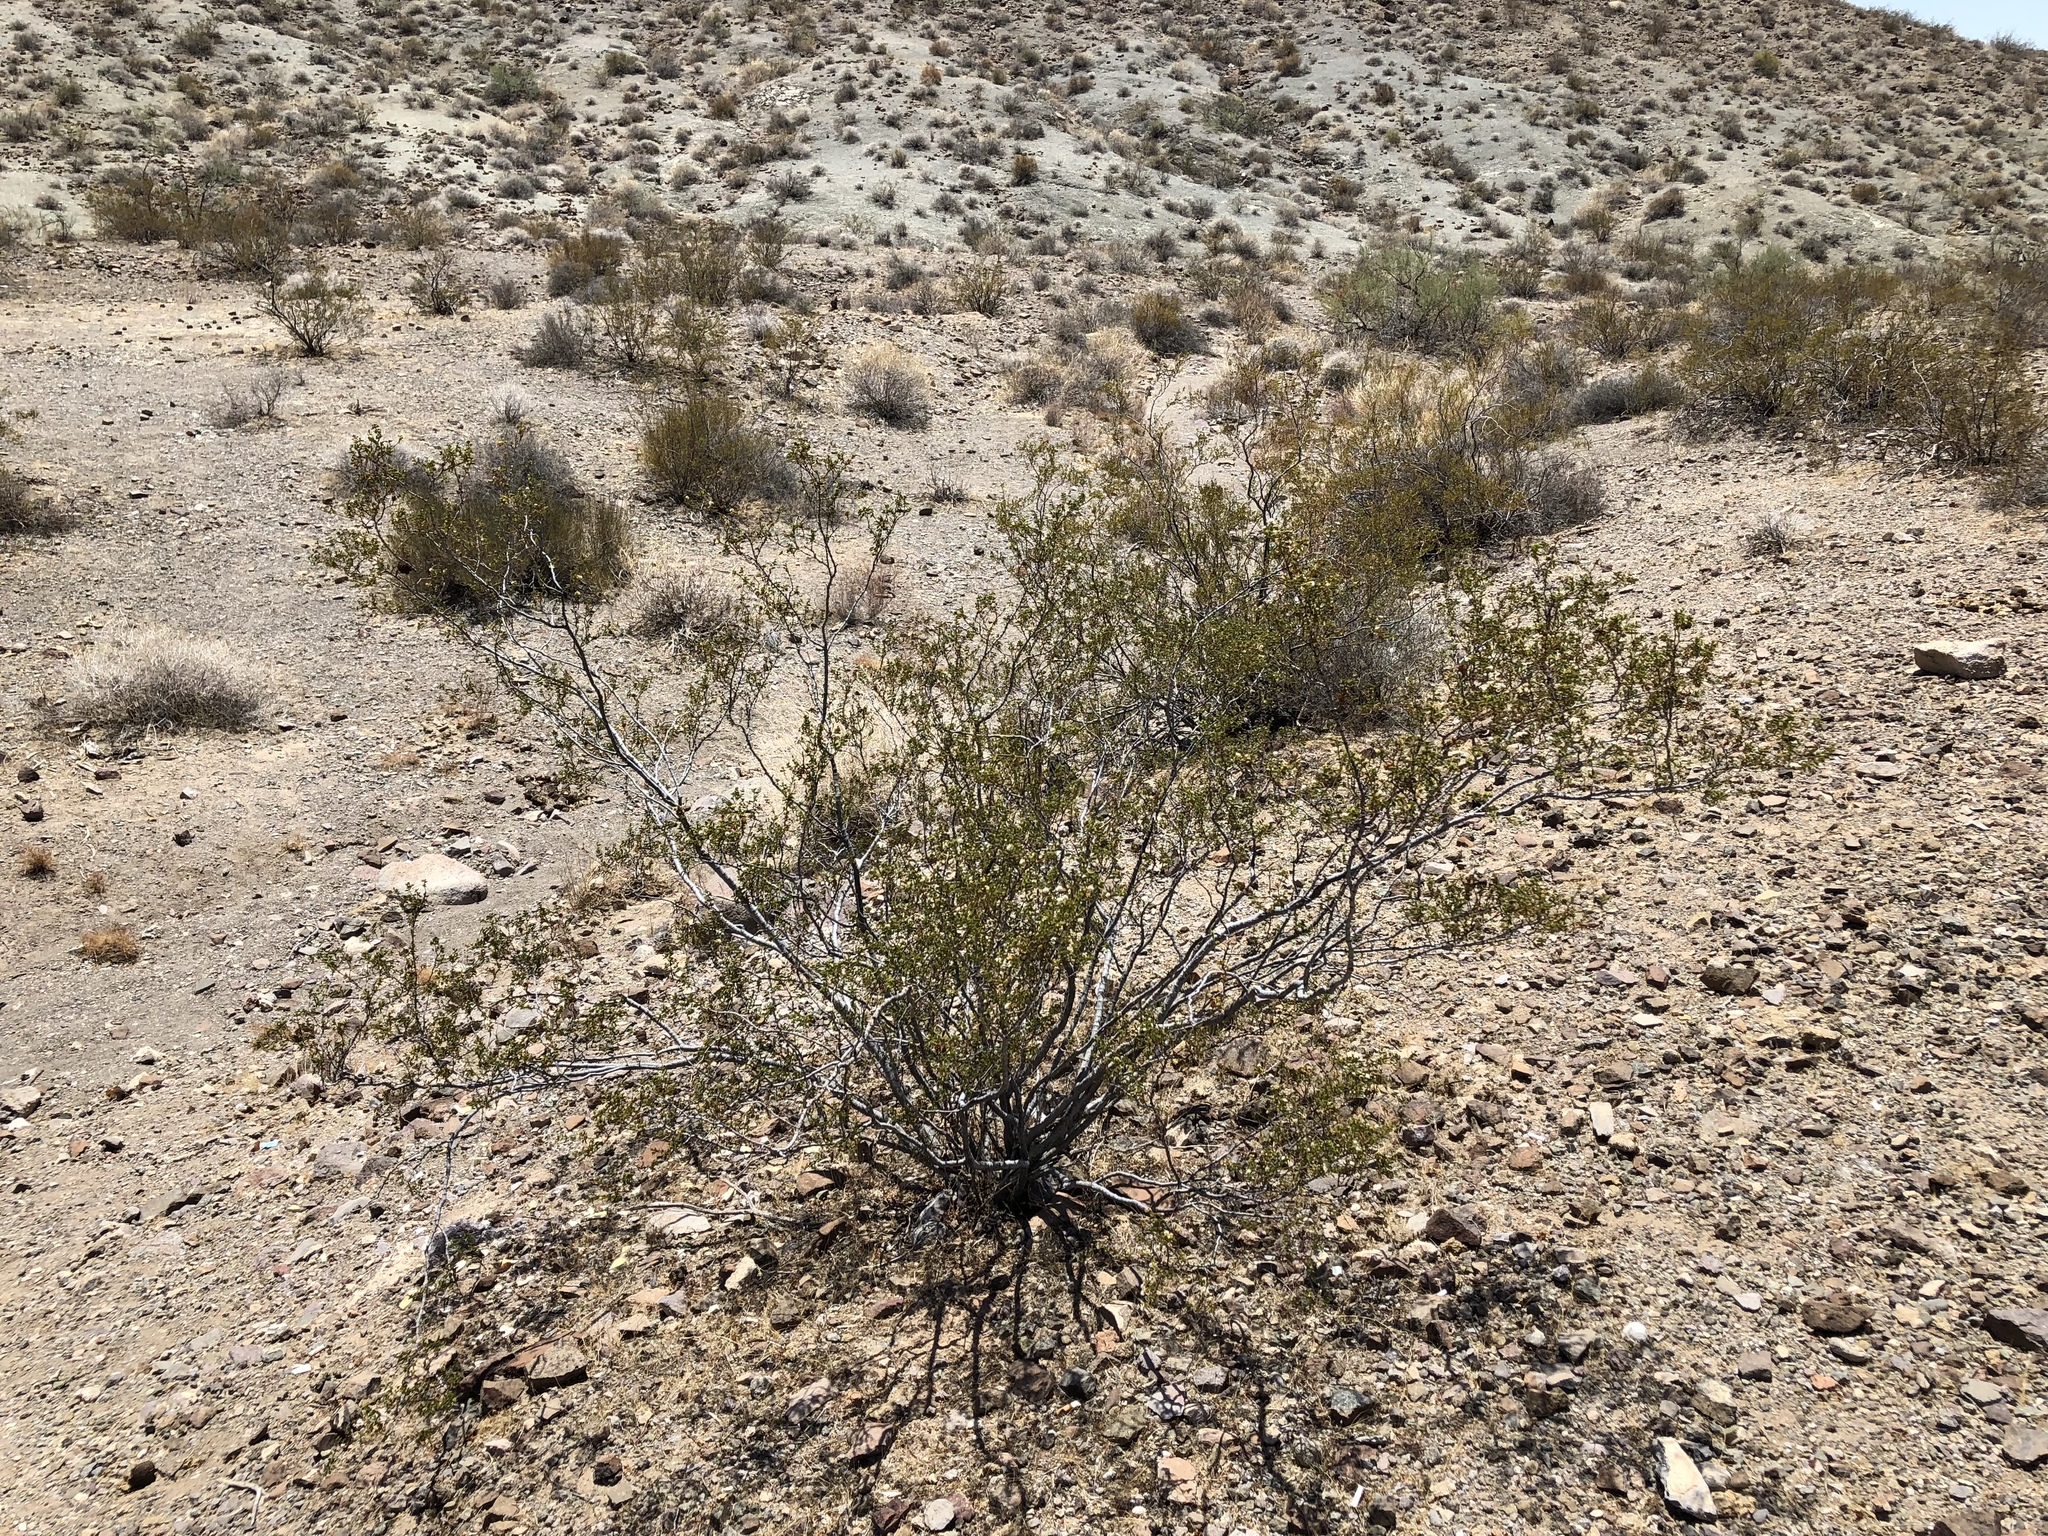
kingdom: Plantae
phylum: Tracheophyta
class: Magnoliopsida
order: Zygophyllales
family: Zygophyllaceae
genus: Larrea
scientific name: Larrea tridentata
